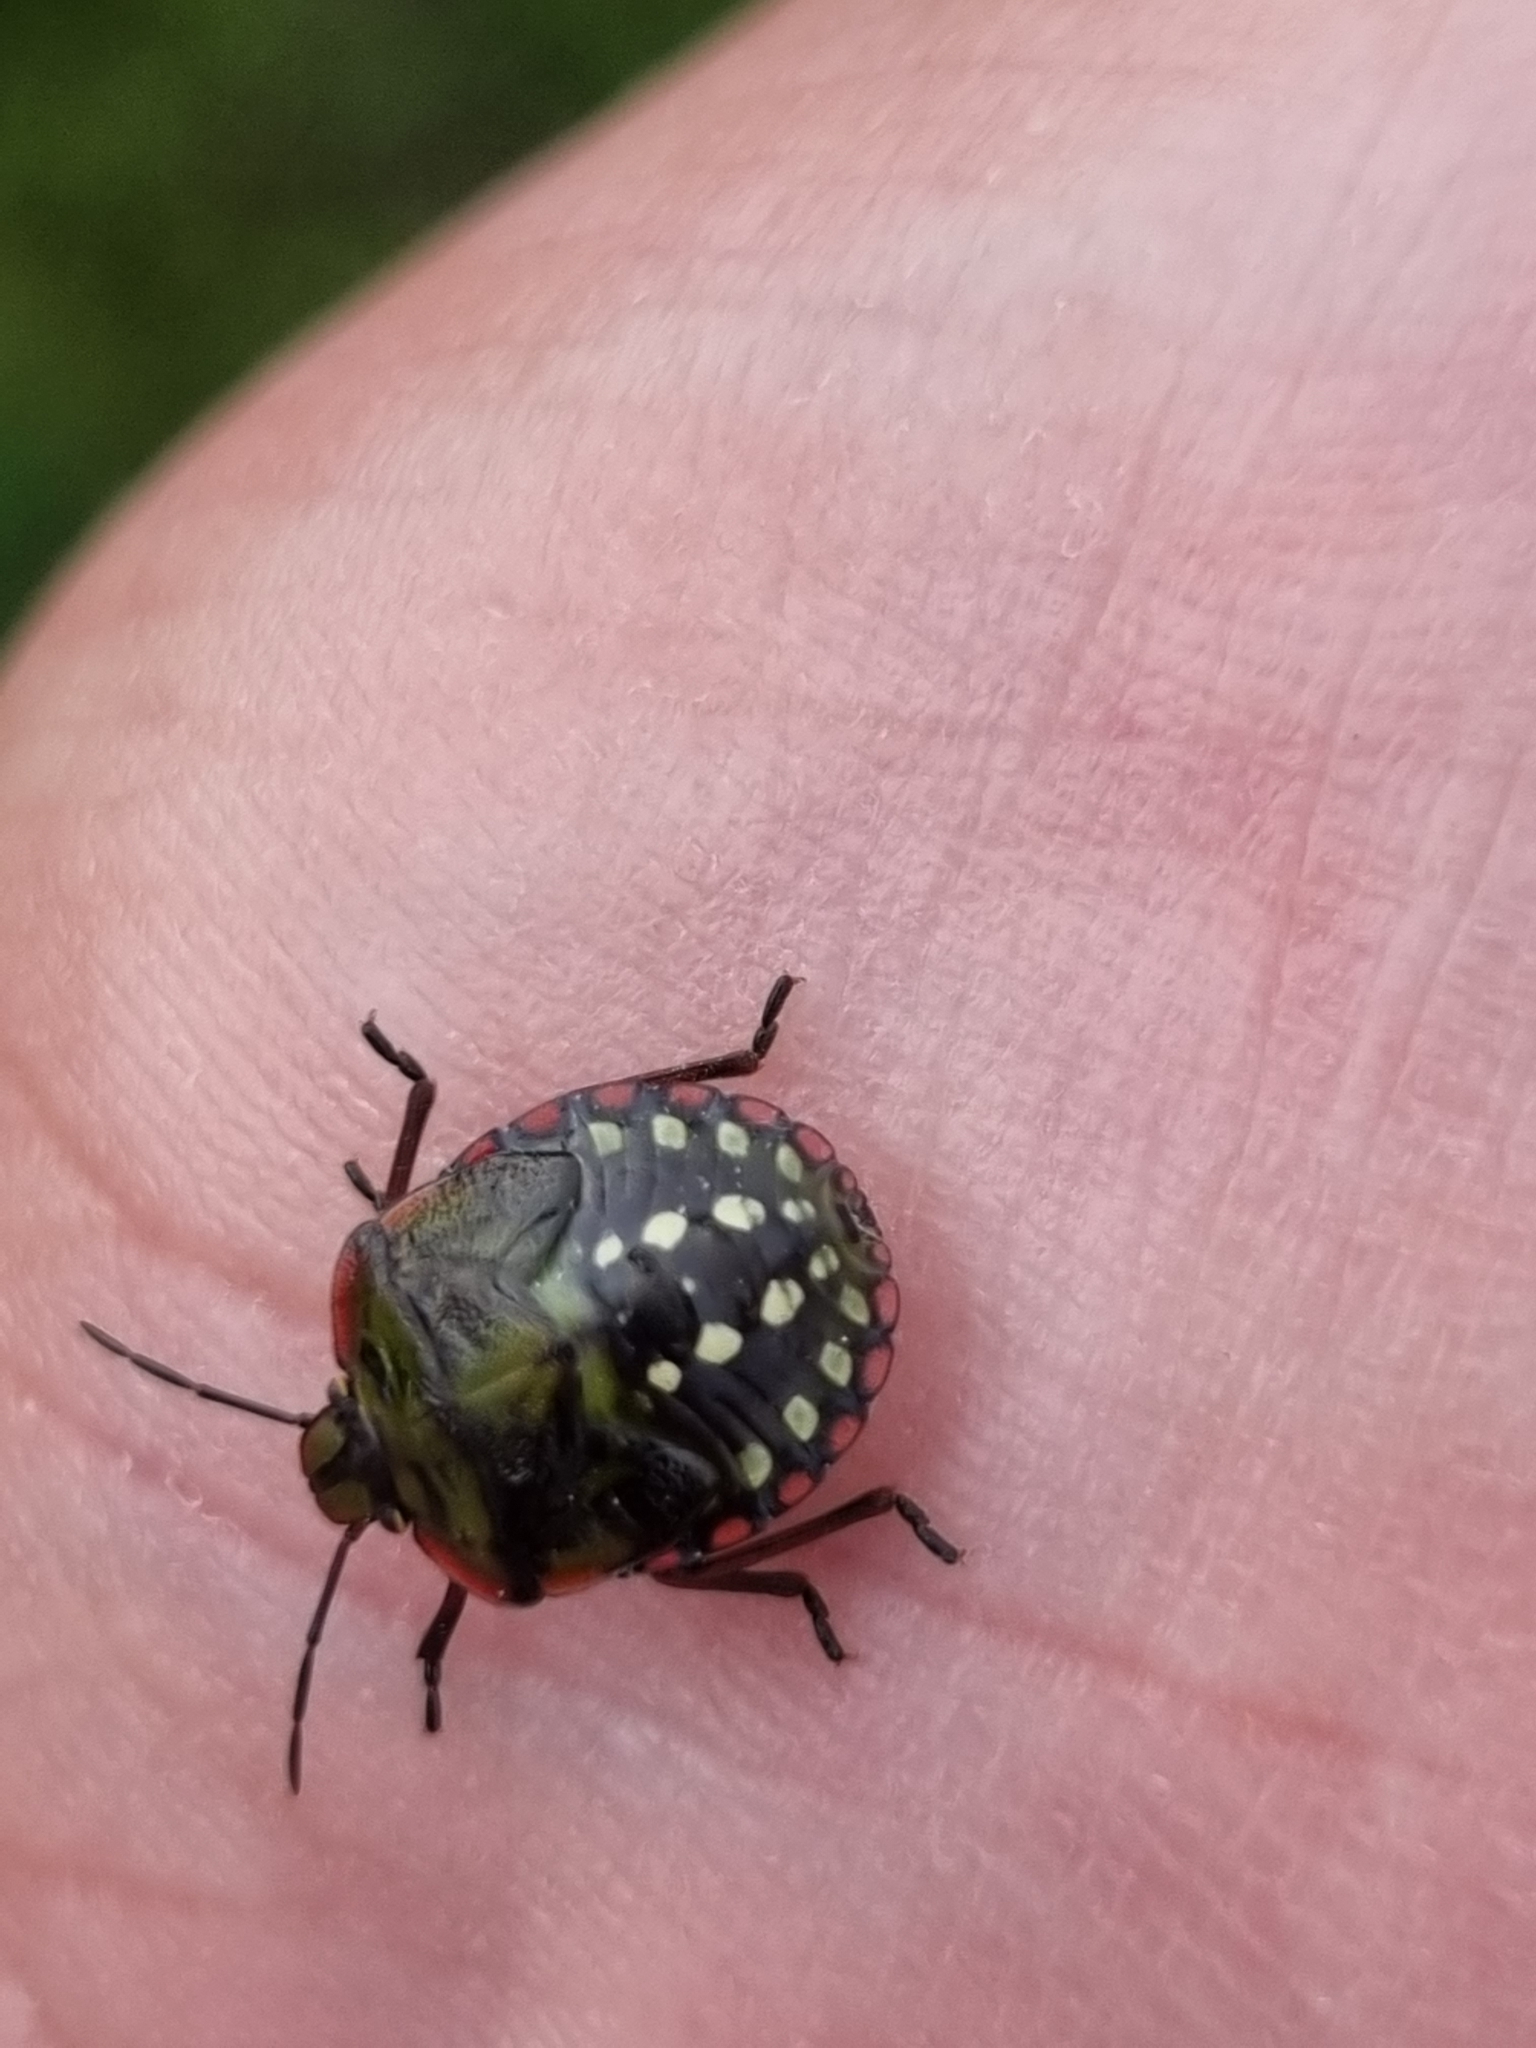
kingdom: Animalia
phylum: Arthropoda
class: Insecta
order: Hemiptera
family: Pentatomidae
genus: Nezara
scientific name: Nezara viridula
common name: Southern green stink bug
